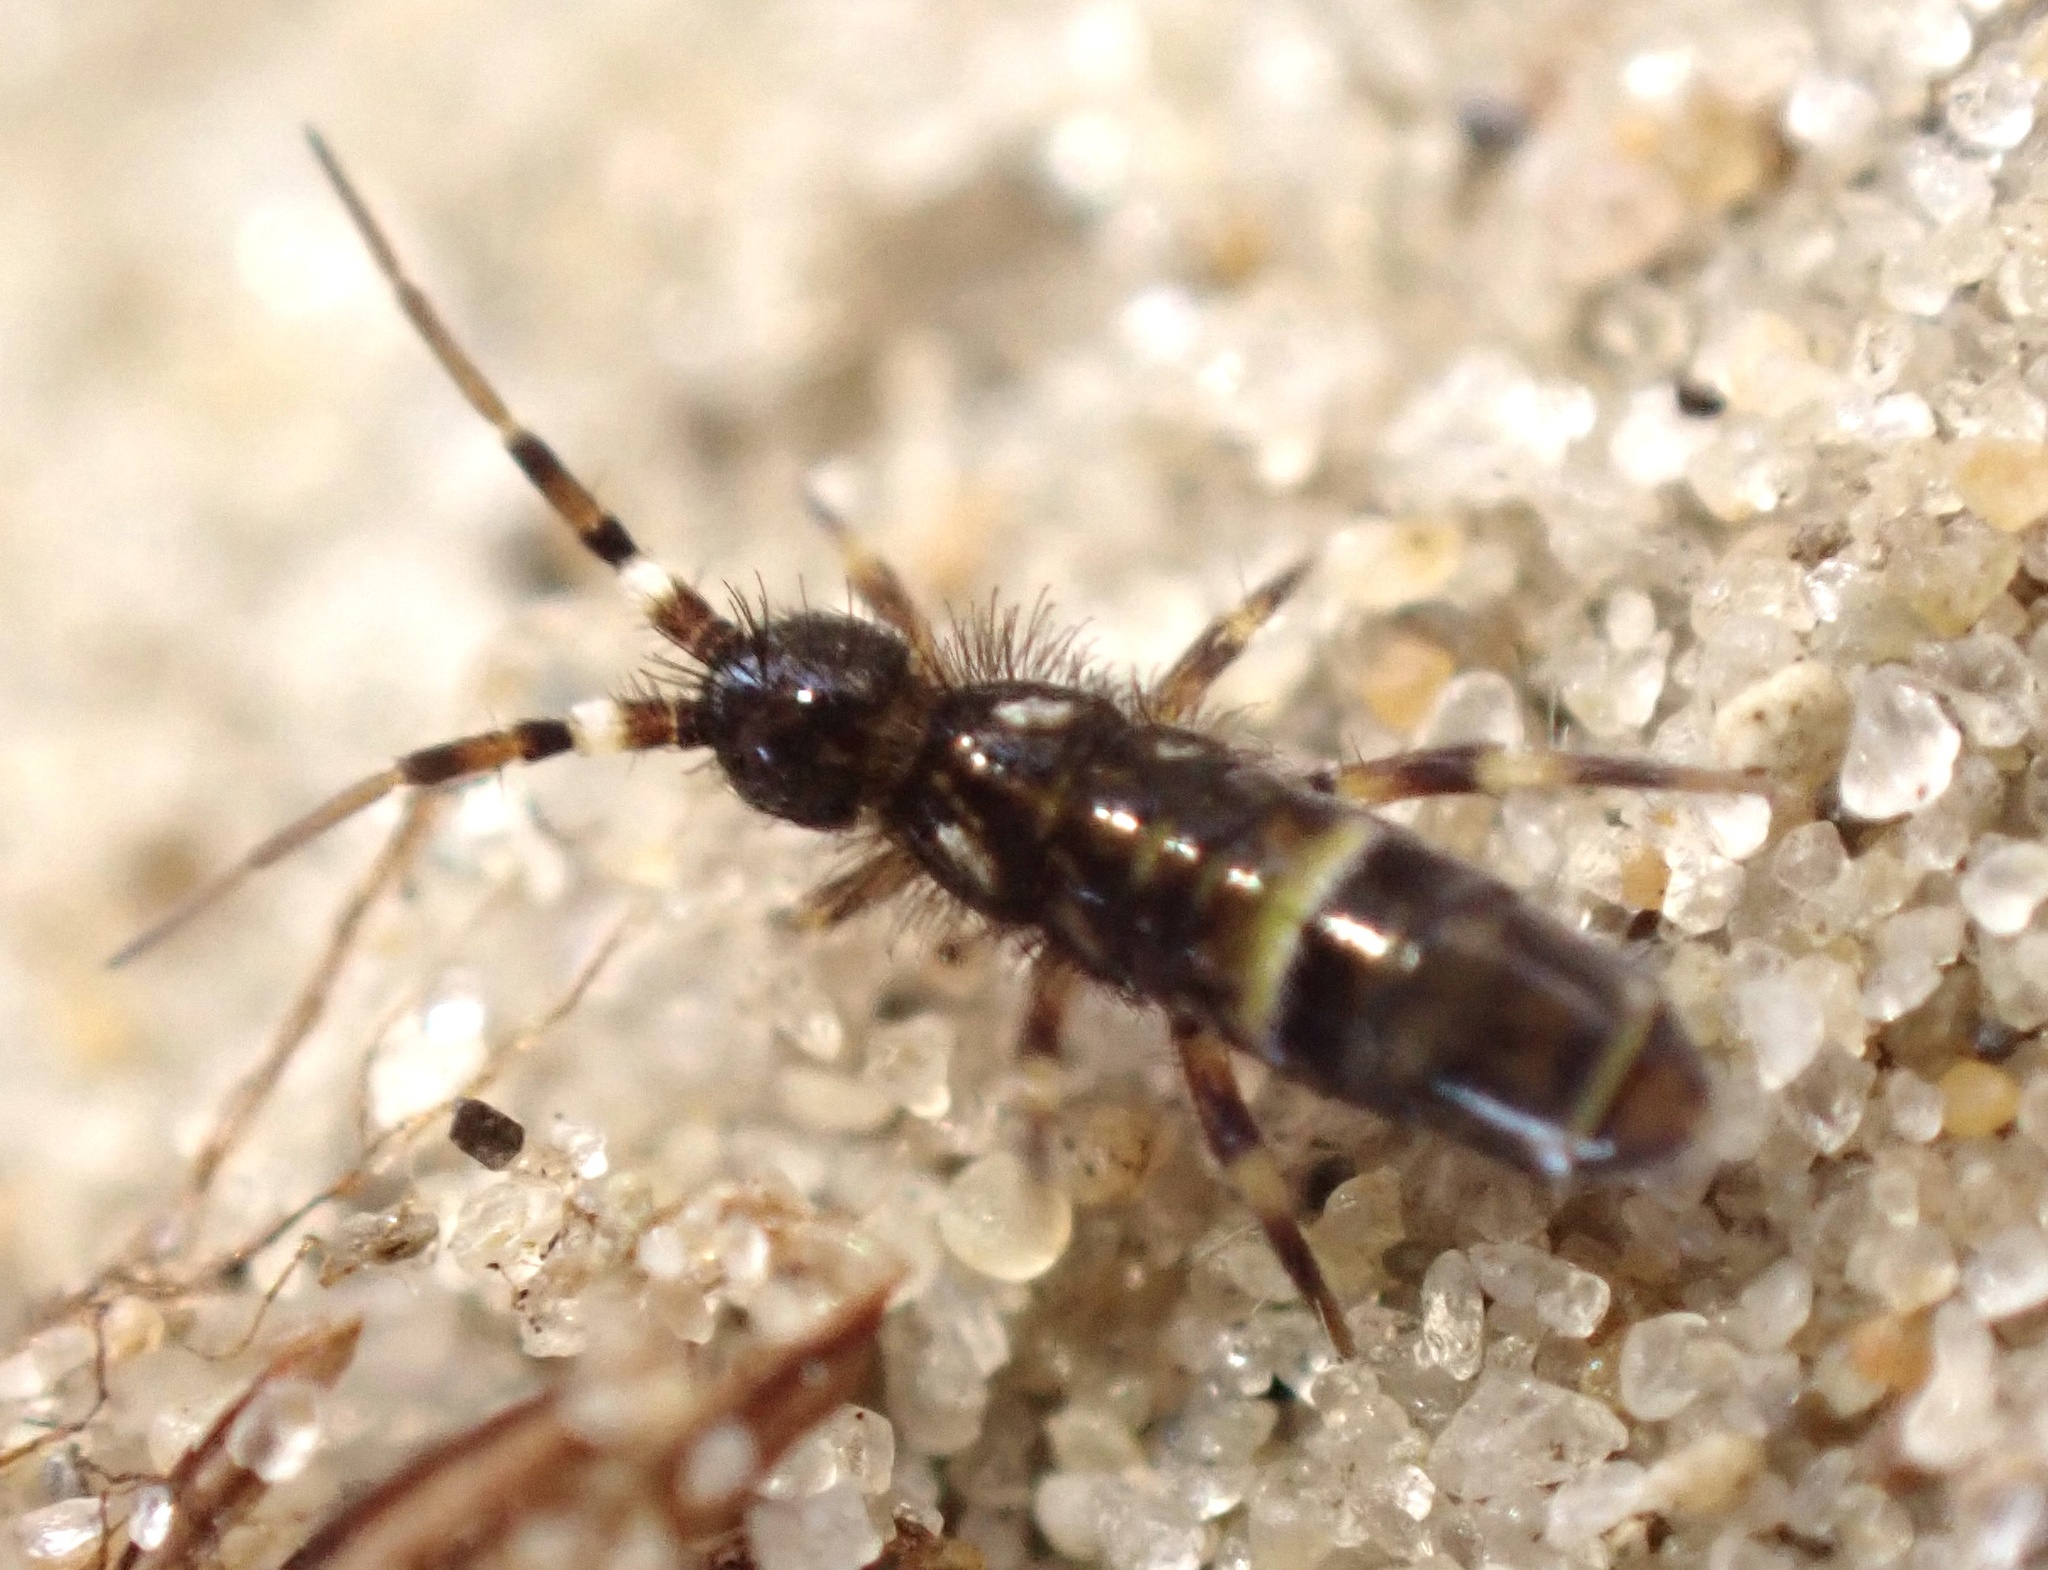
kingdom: Animalia
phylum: Arthropoda
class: Collembola
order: Entomobryomorpha
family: Orchesellidae
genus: Orchesella
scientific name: Orchesella cincta
